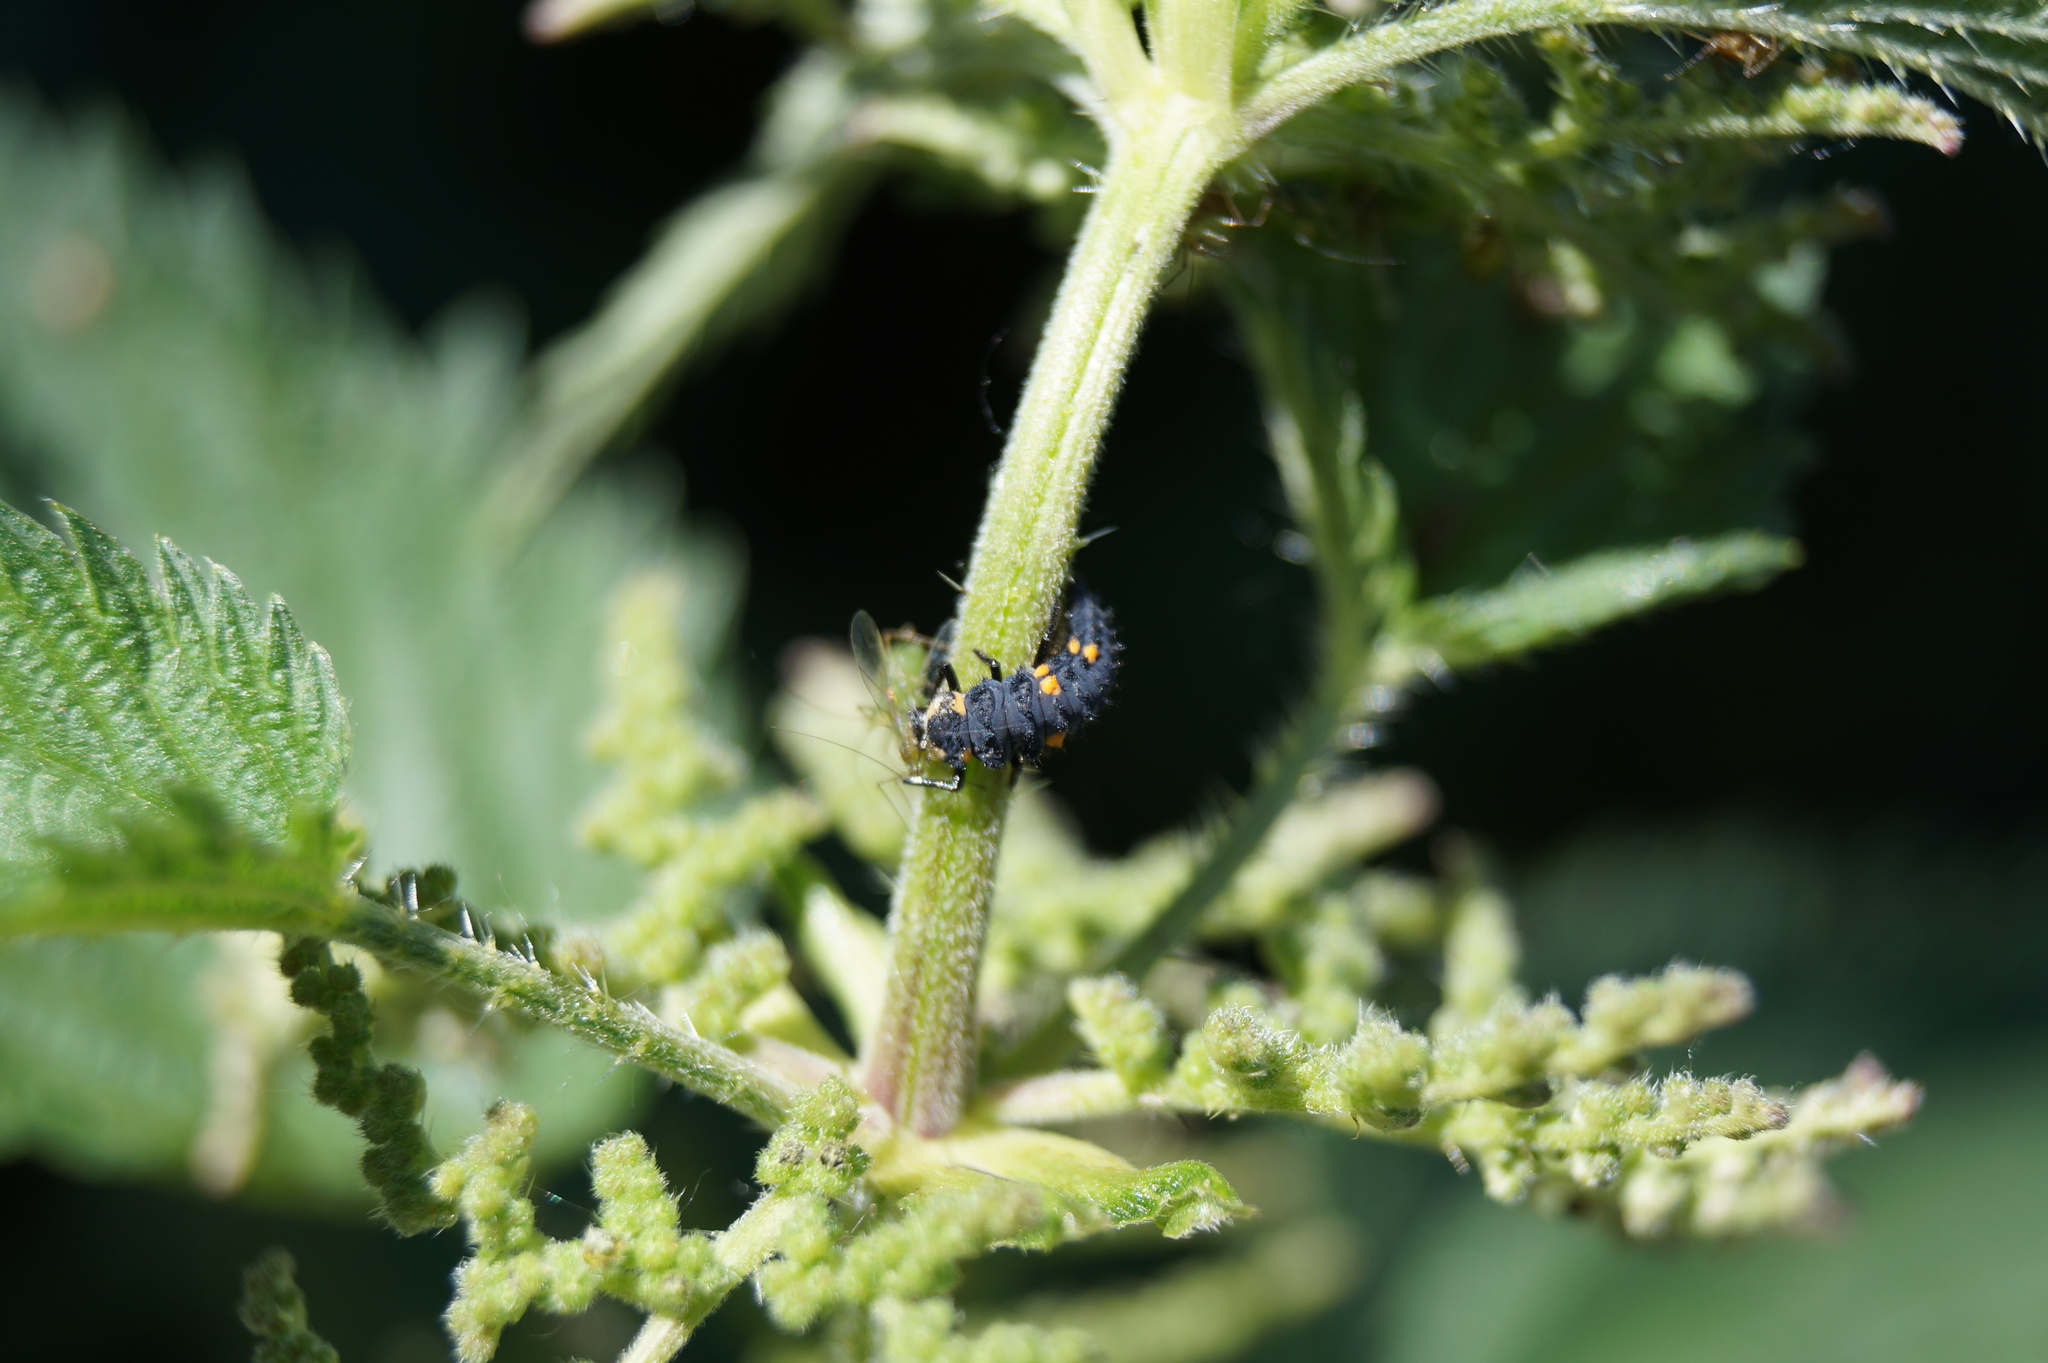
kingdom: Animalia
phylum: Arthropoda
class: Insecta
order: Coleoptera
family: Coccinellidae
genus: Coccinella
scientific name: Coccinella septempunctata
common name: Sevenspotted lady beetle
